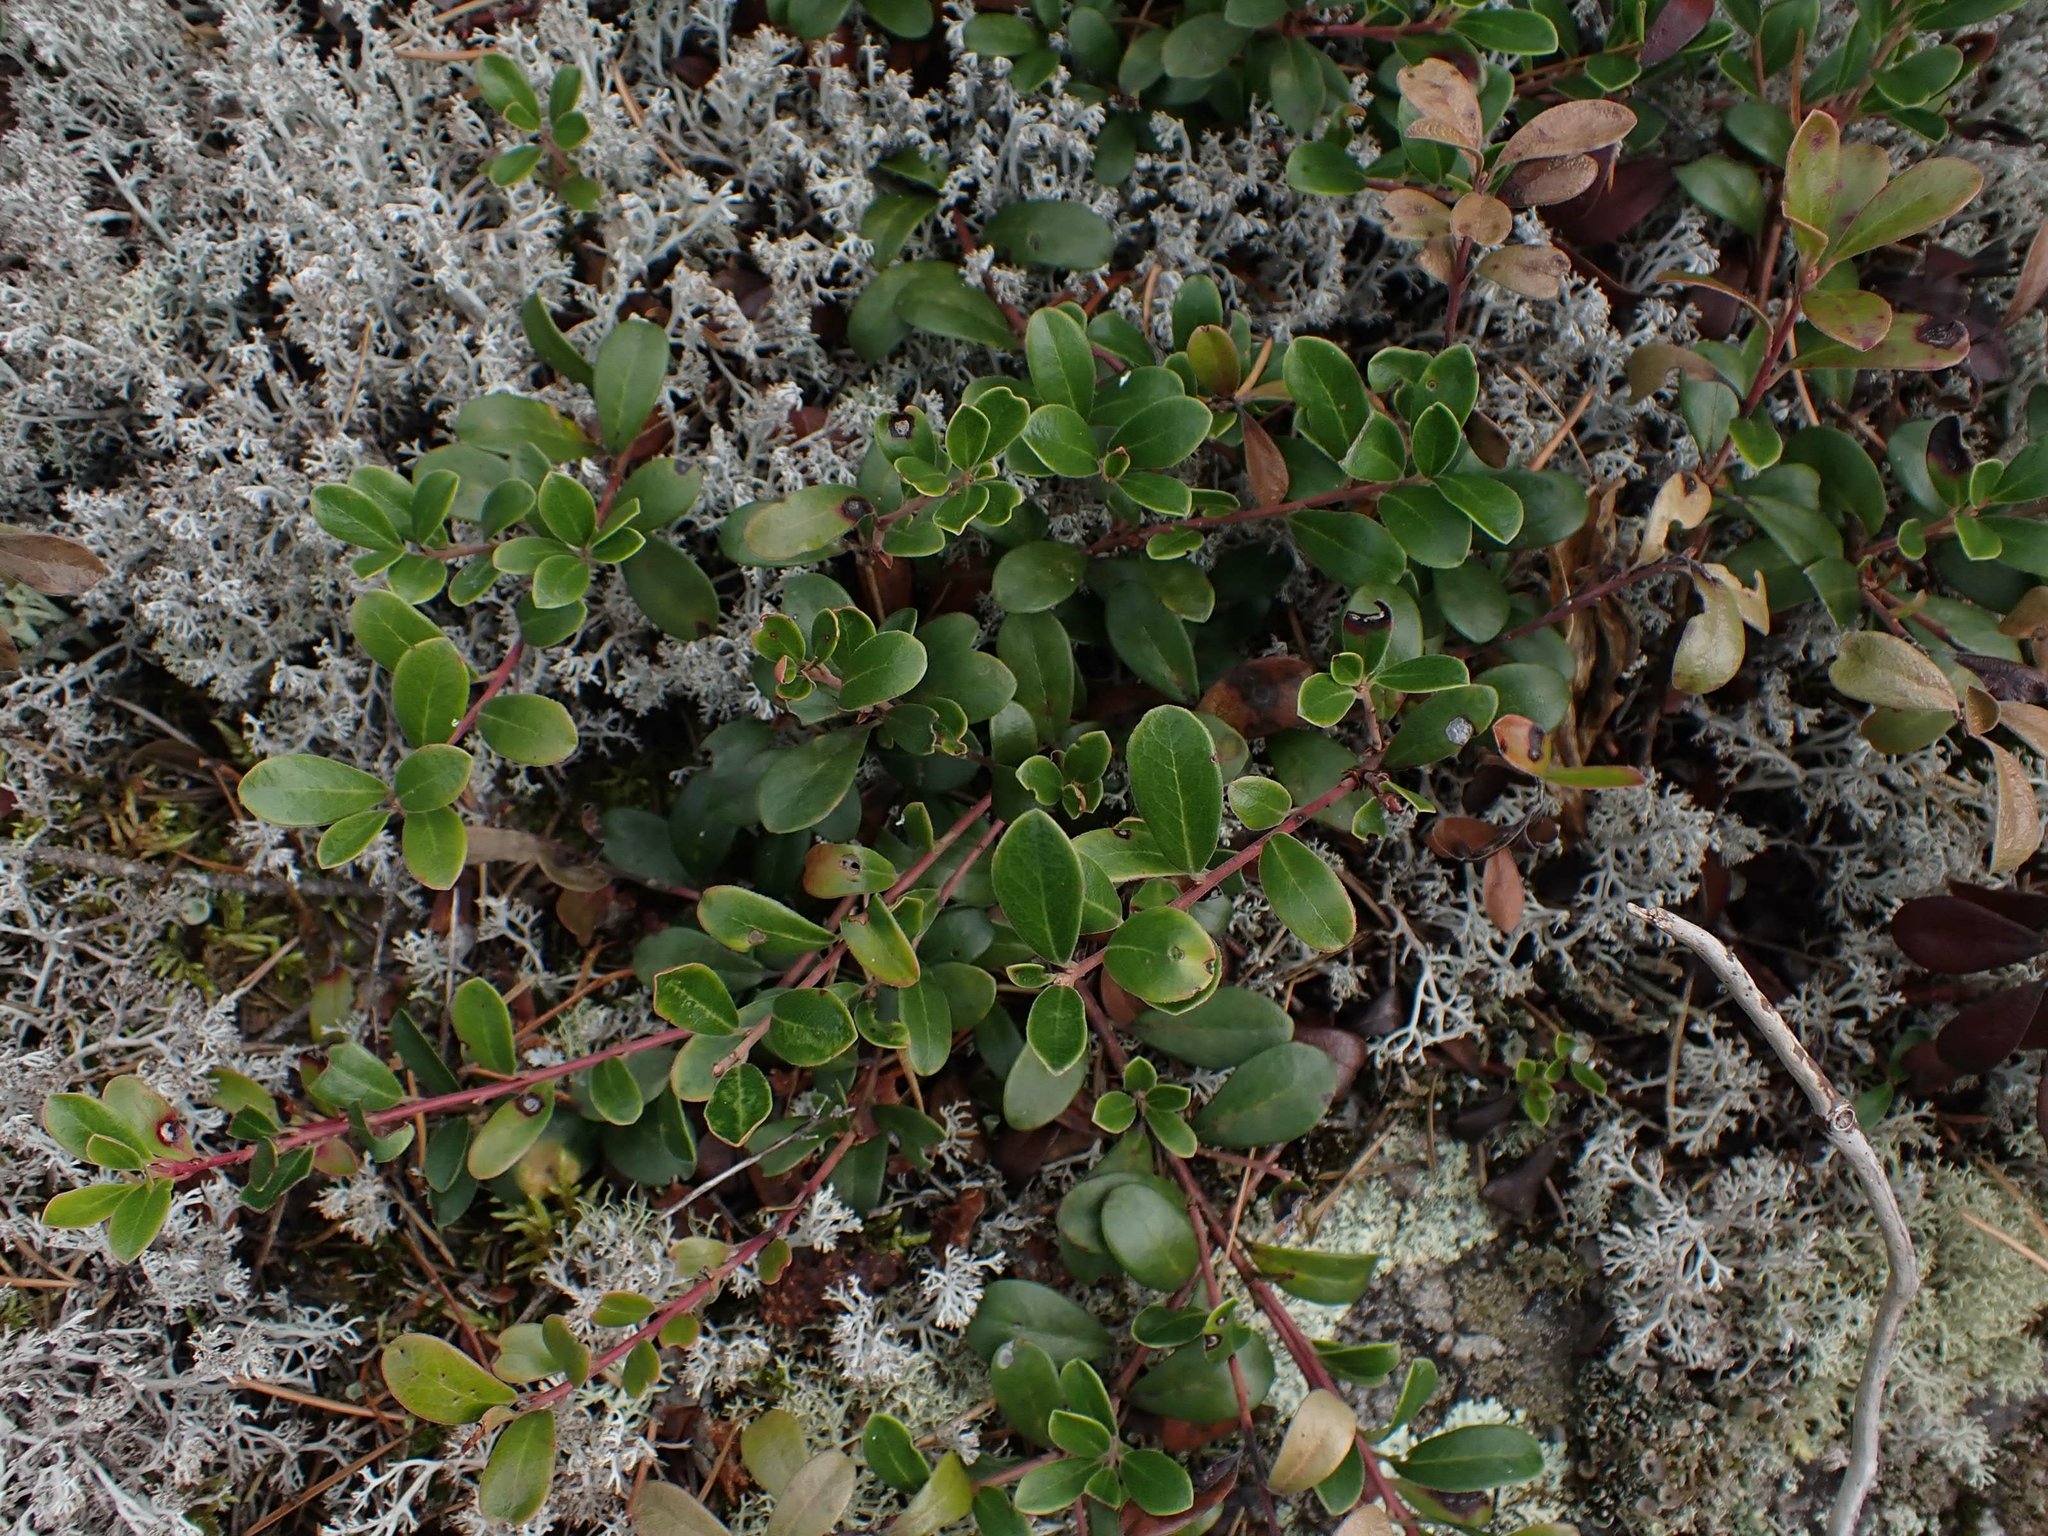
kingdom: Plantae
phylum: Tracheophyta
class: Magnoliopsida
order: Ericales
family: Ericaceae
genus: Arctostaphylos
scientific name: Arctostaphylos uva-ursi
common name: Bearberry
